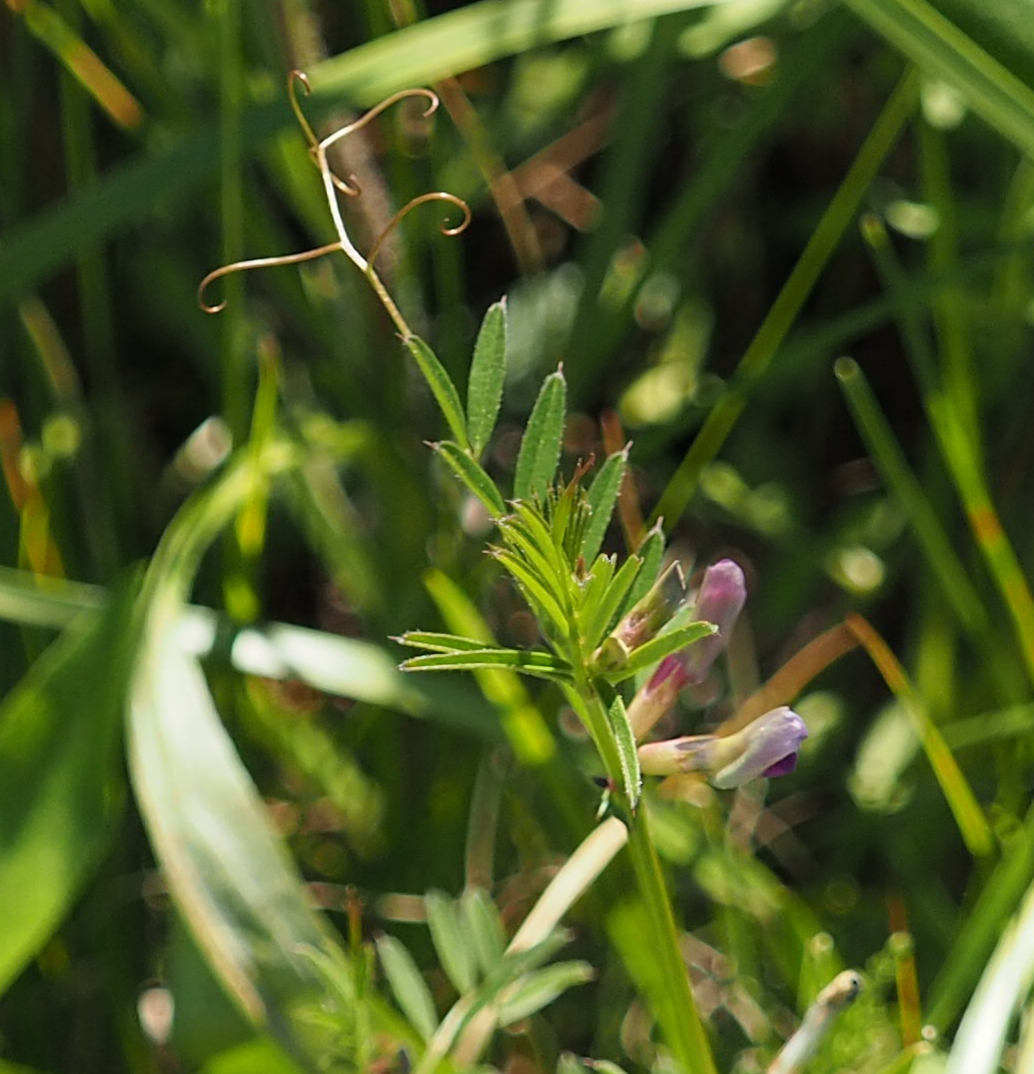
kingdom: Plantae
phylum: Tracheophyta
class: Magnoliopsida
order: Fabales
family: Fabaceae
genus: Vicia
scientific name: Vicia sativa
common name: Garden vetch
